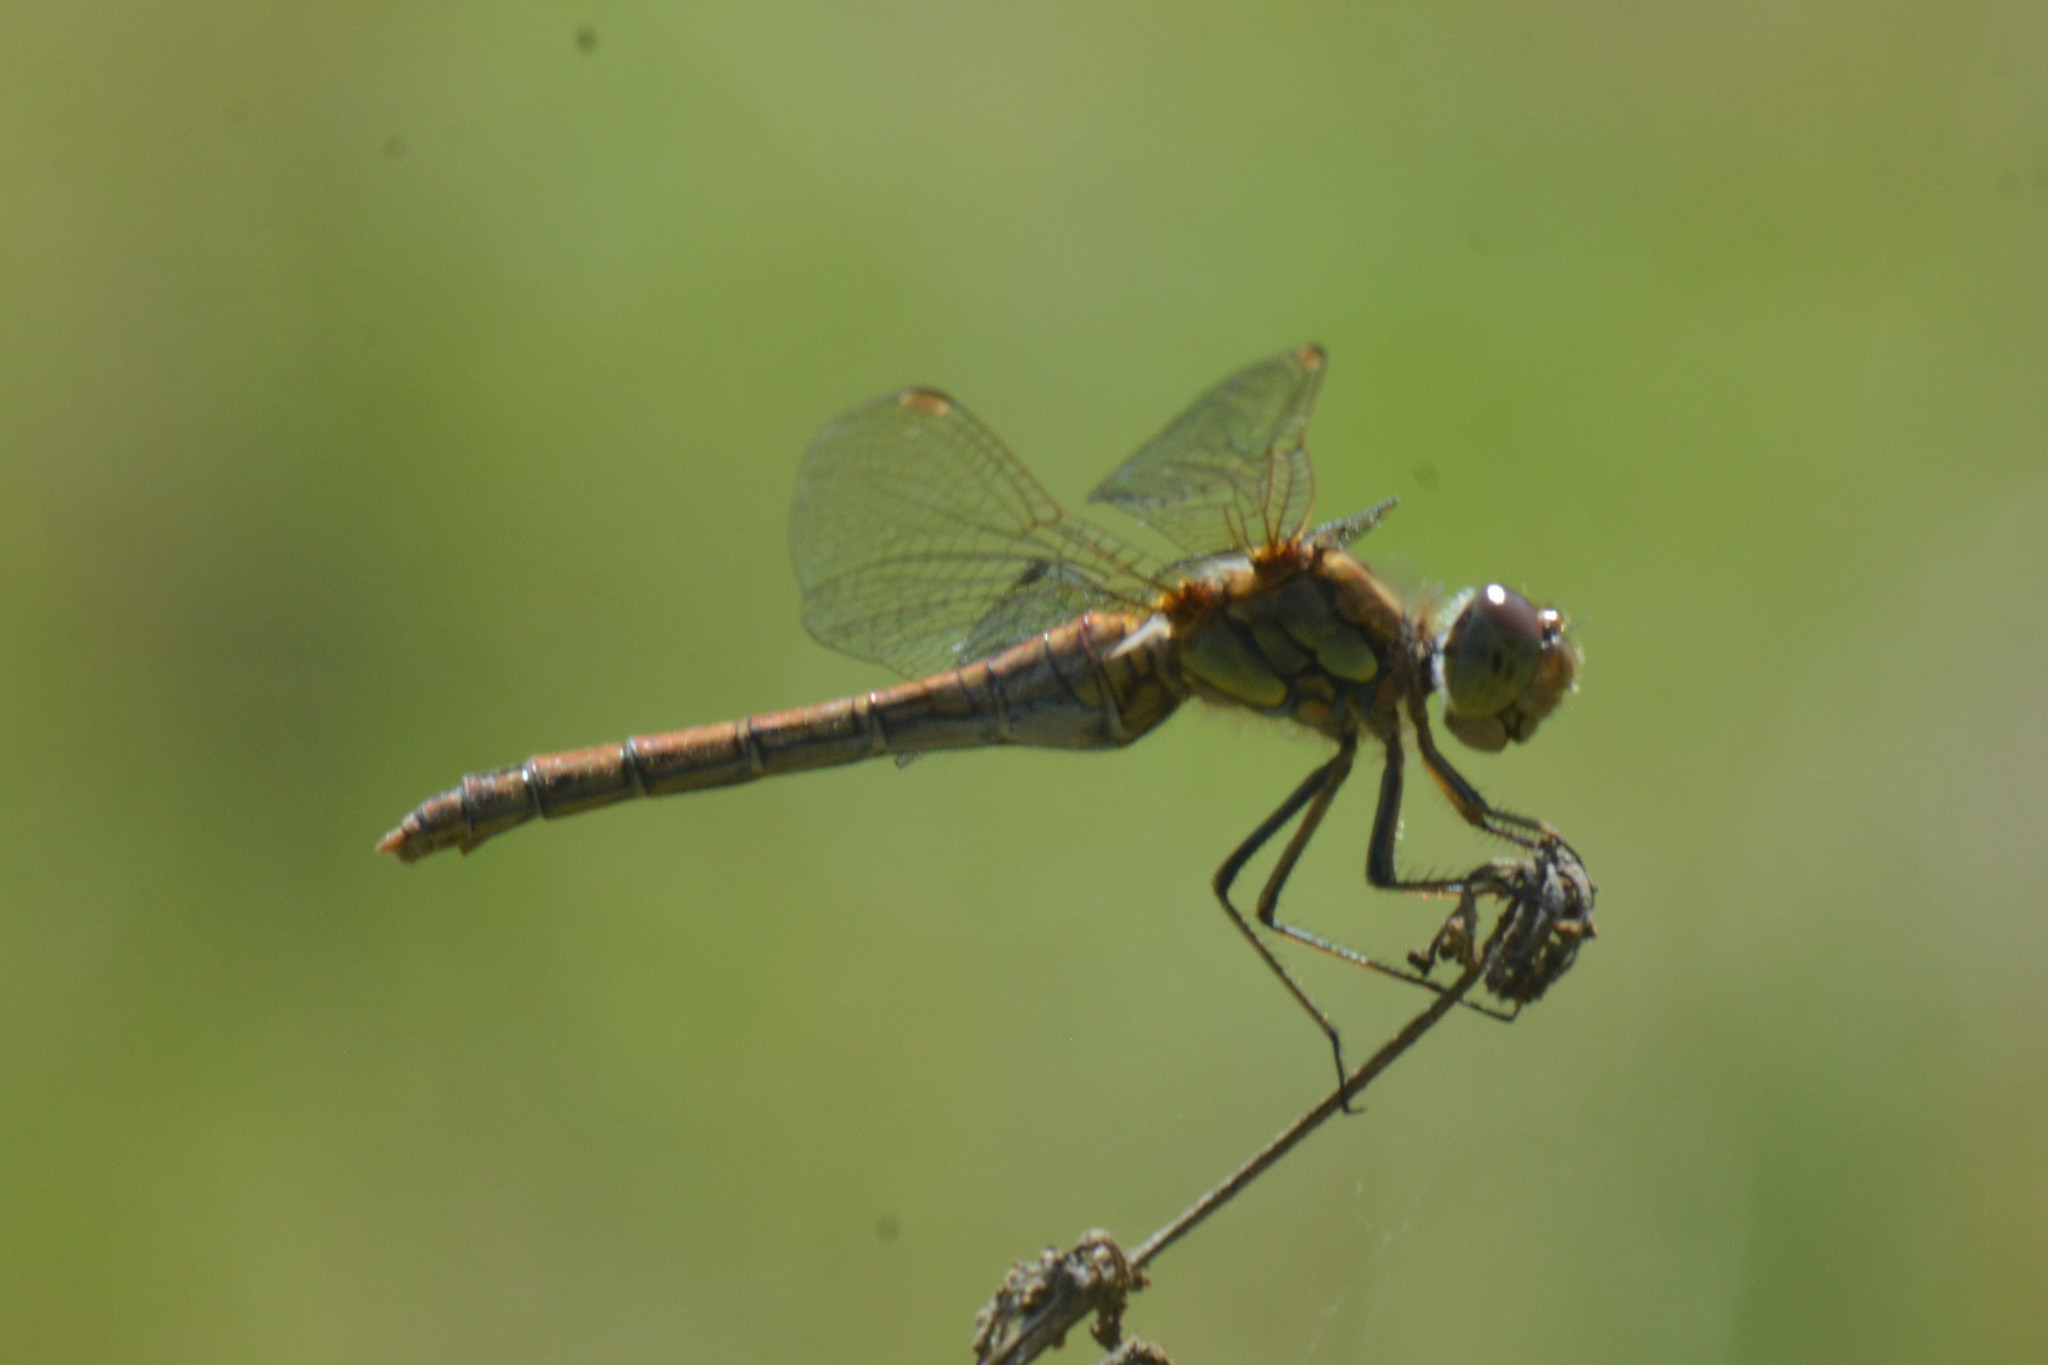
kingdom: Animalia
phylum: Arthropoda
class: Insecta
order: Odonata
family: Libellulidae
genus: Sympetrum
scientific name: Sympetrum striolatum
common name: Common darter
